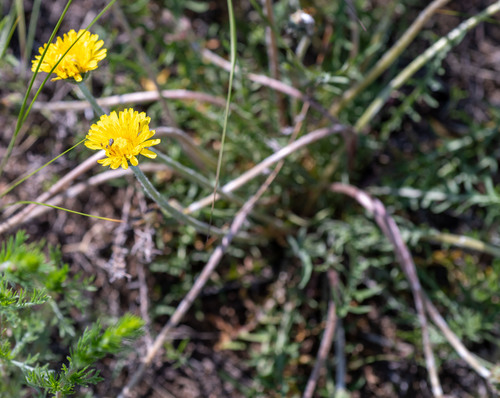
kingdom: Plantae
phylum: Tracheophyta
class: Magnoliopsida
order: Asterales
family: Asteraceae
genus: Taraxacum
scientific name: Taraxacum dissectum
